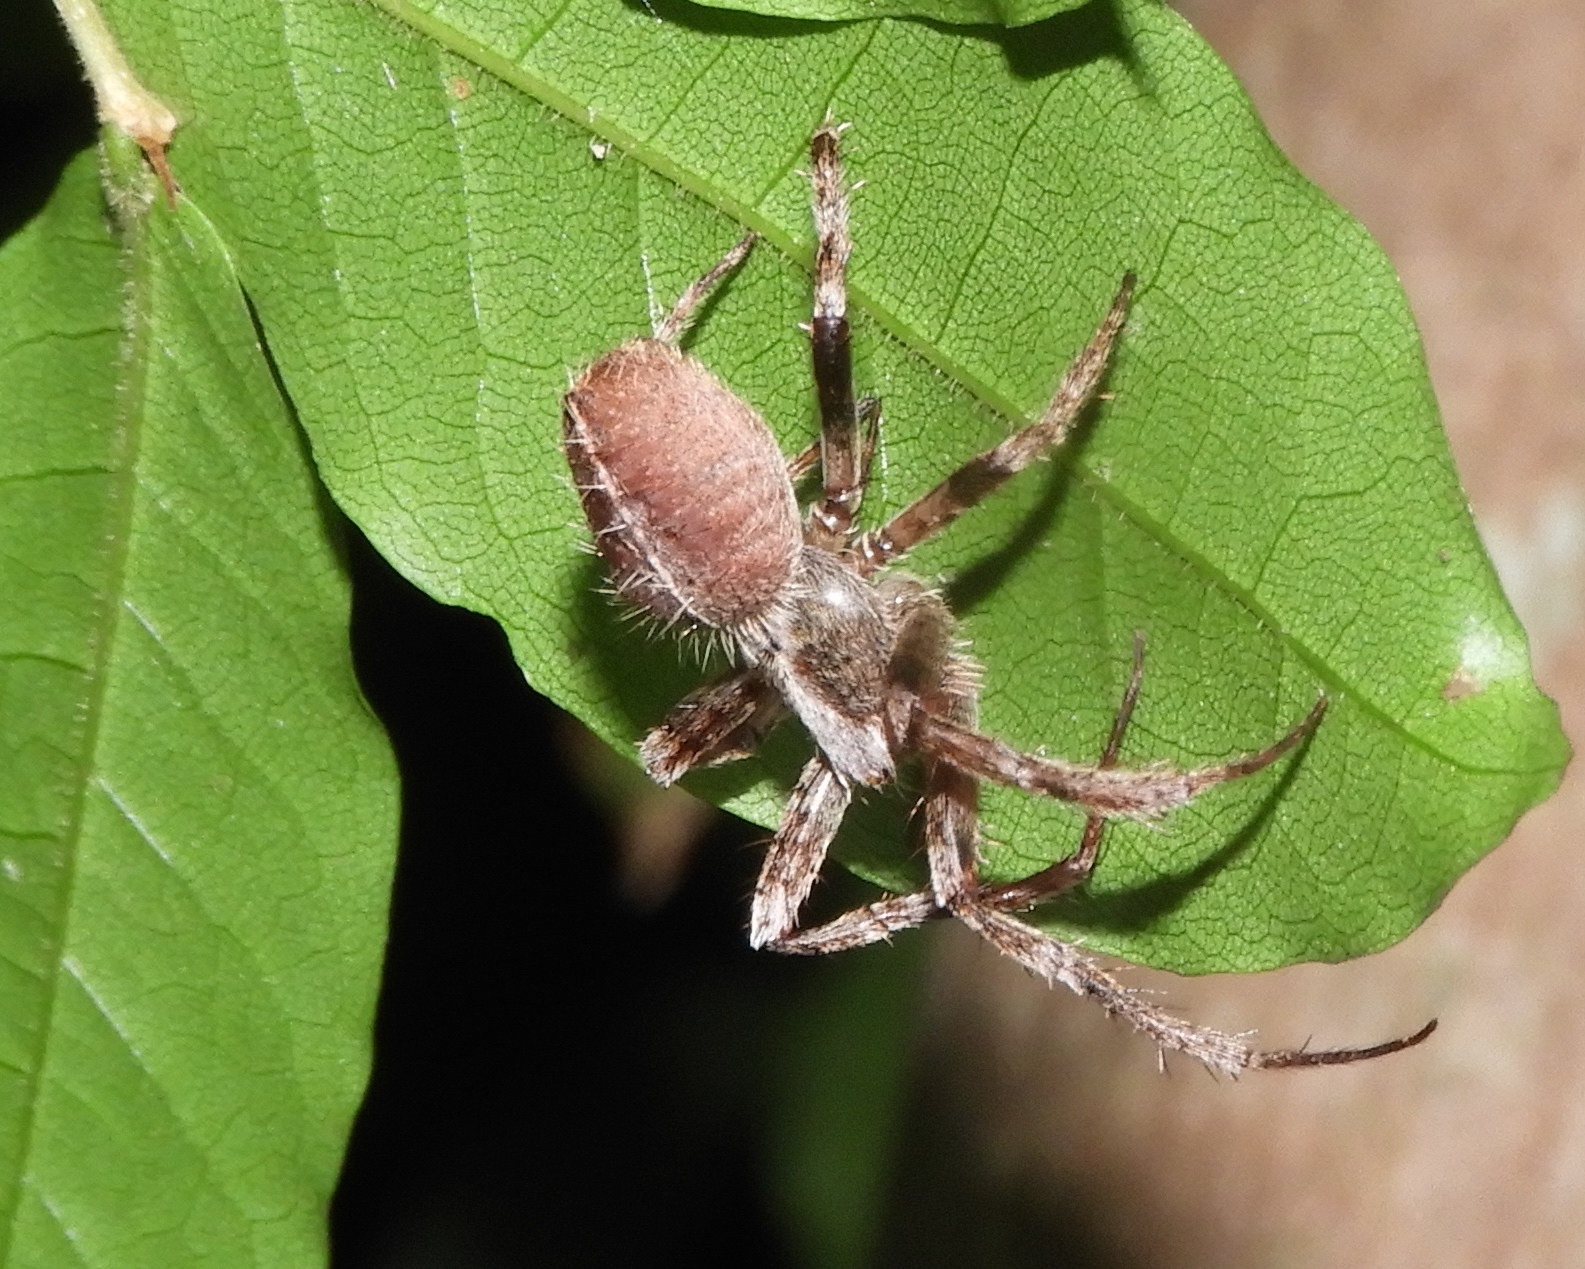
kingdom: Animalia
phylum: Arthropoda
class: Arachnida
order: Araneae
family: Araneidae
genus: Eriophora
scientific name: Eriophora edax
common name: Orb weavers
